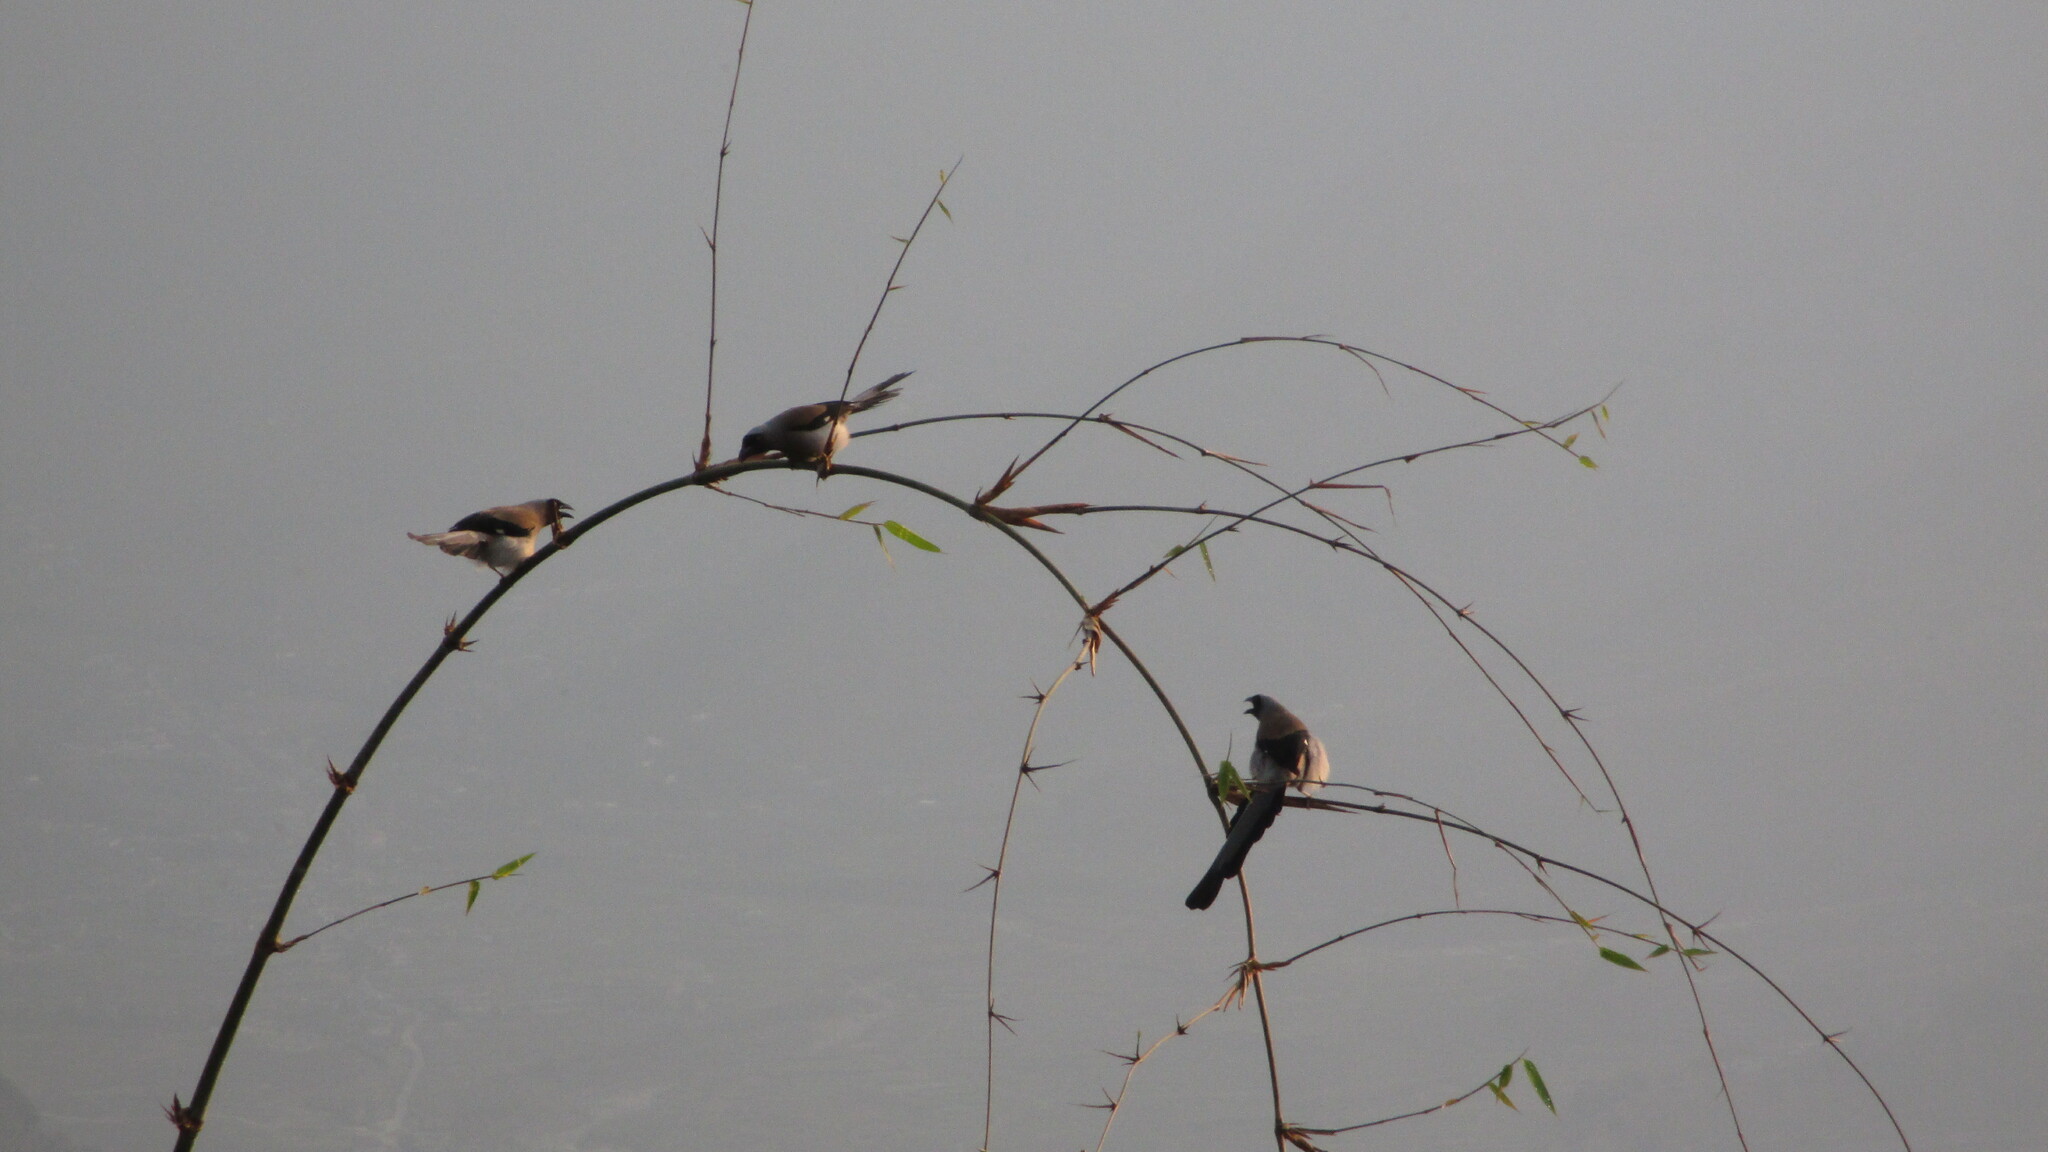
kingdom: Animalia
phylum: Chordata
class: Aves
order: Passeriformes
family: Corvidae
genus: Dendrocitta
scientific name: Dendrocitta formosae
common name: Grey treepie
